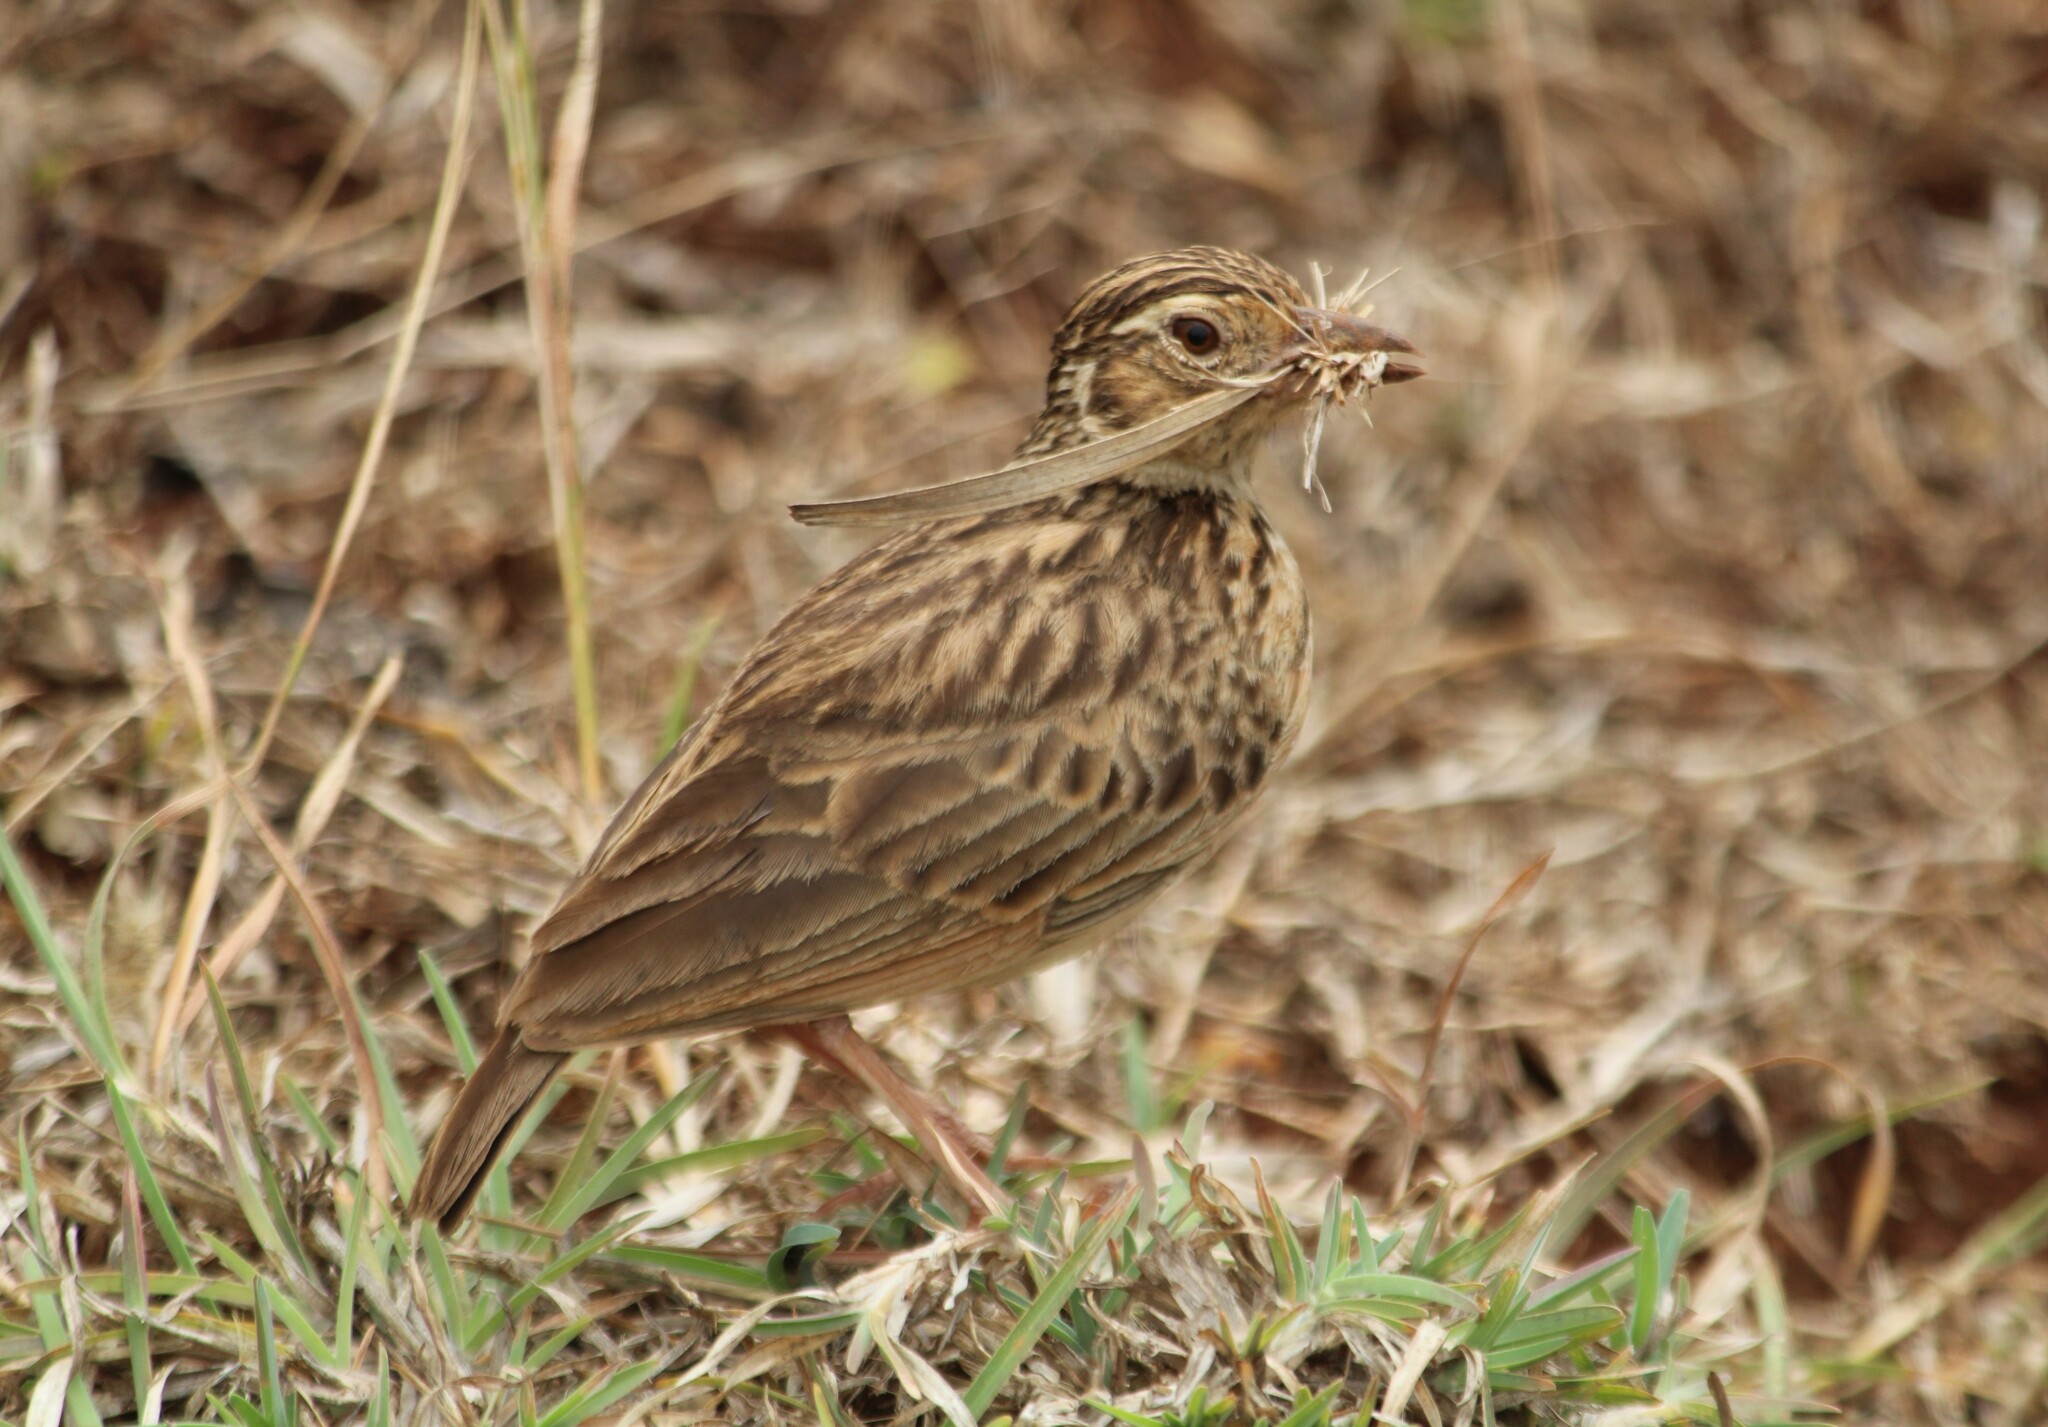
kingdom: Animalia
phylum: Chordata
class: Aves
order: Passeriformes
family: Alaudidae
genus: Mirafra
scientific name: Mirafra affinis
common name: Jerdon's bushlark
